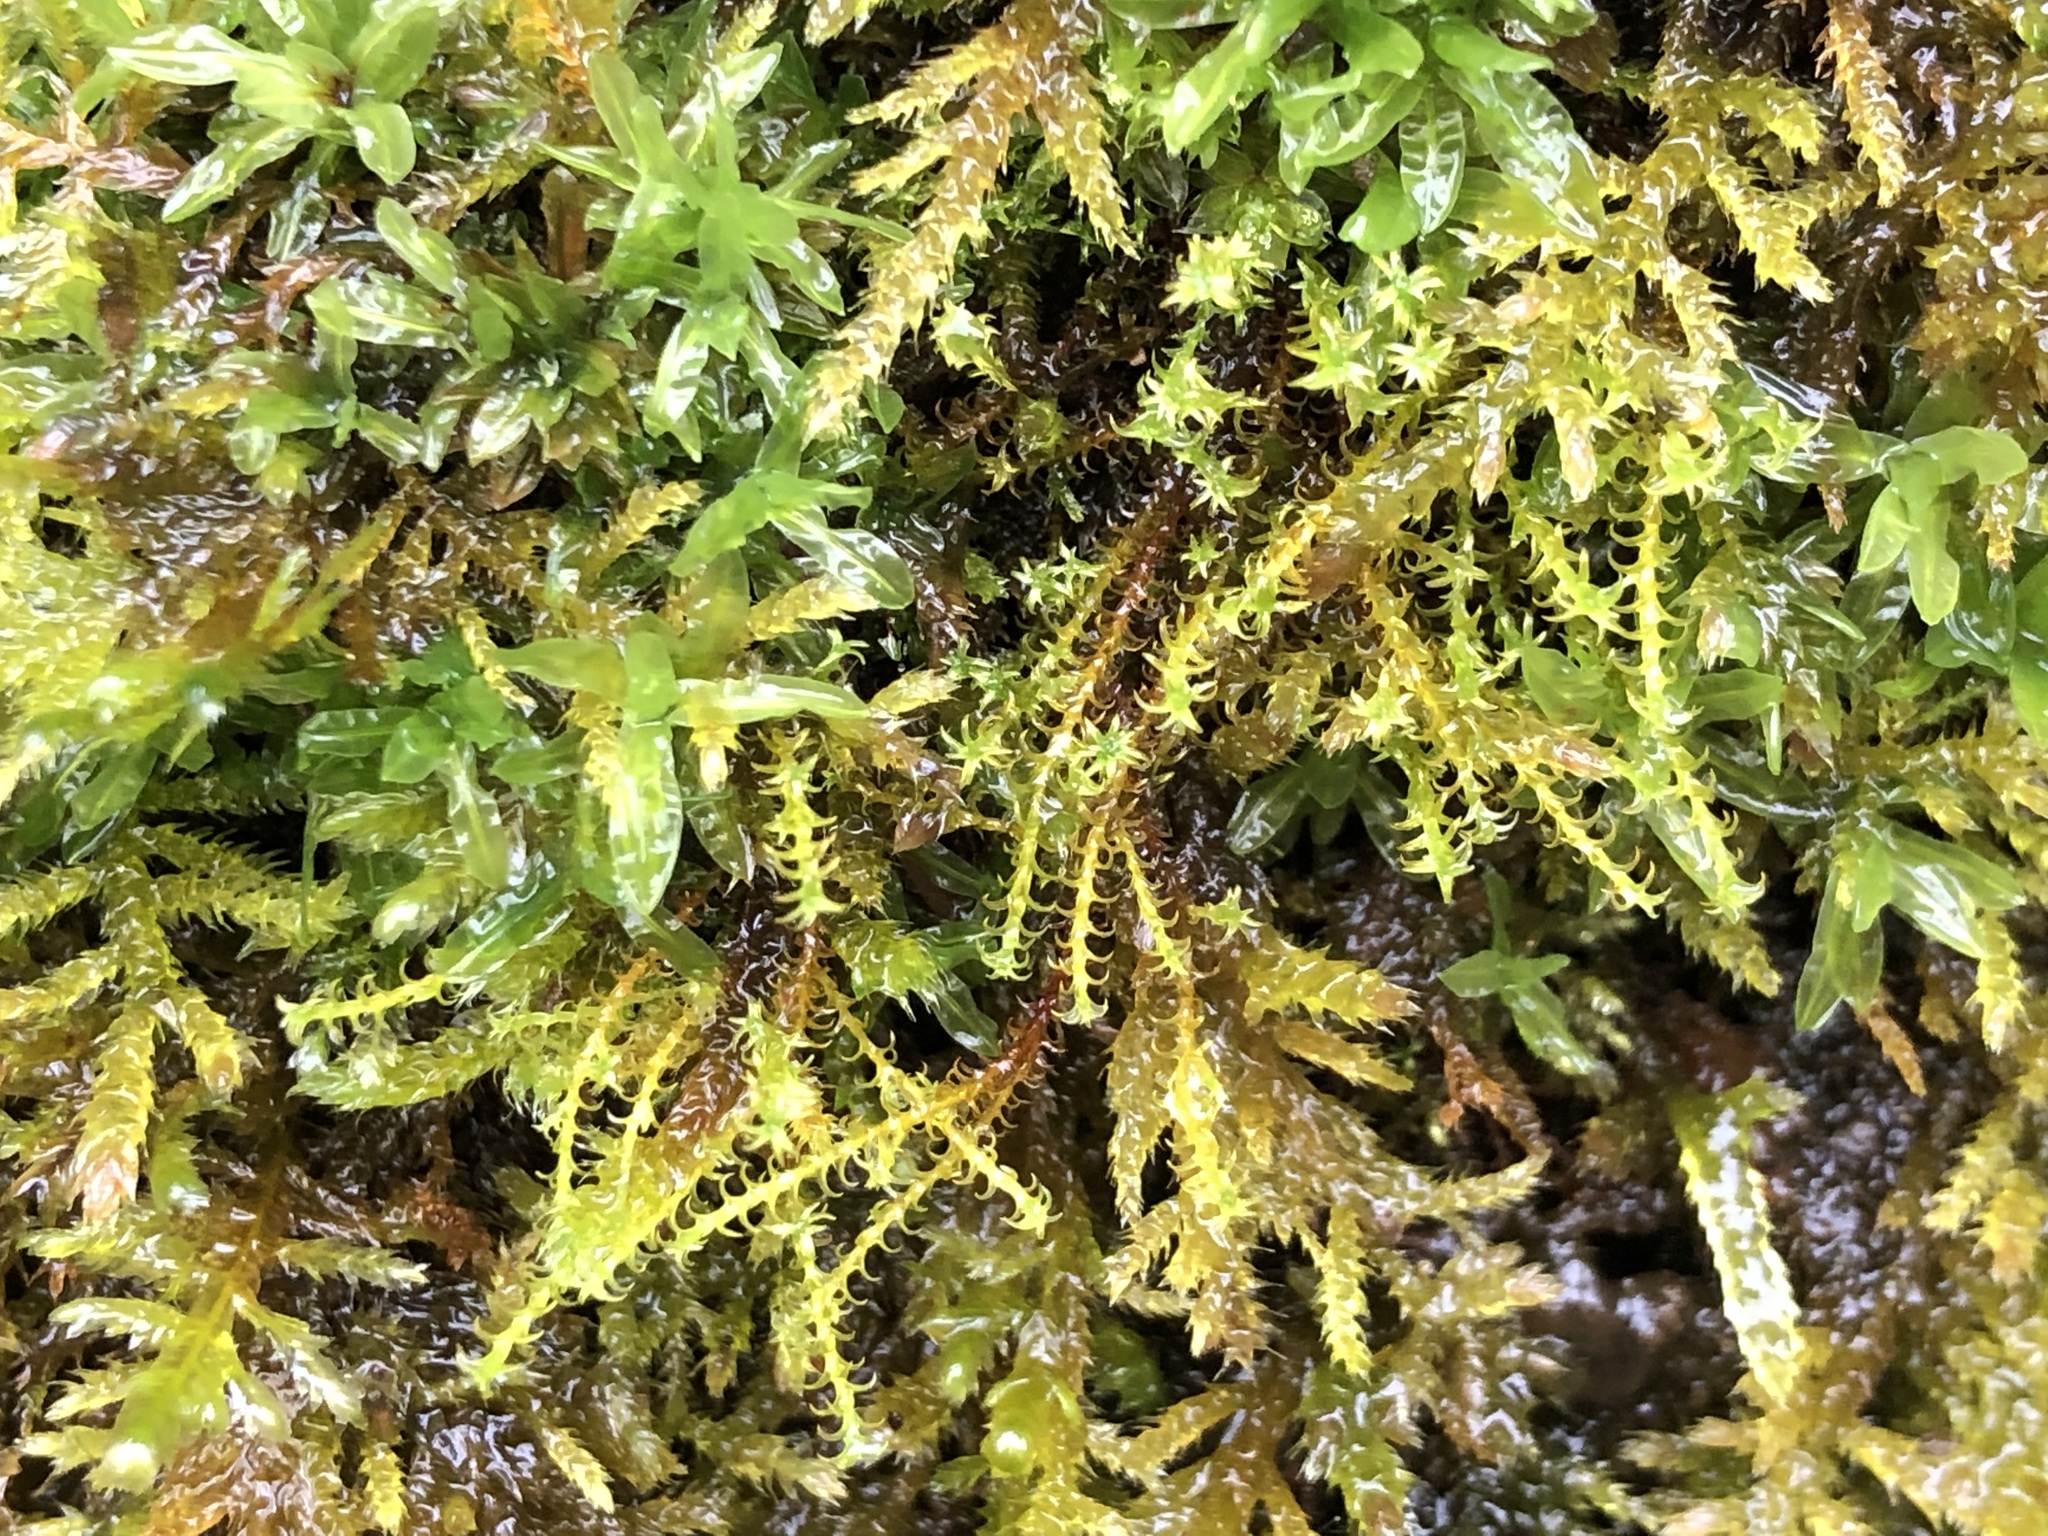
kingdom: Plantae
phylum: Bryophyta
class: Bryopsida
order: Pottiales
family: Pottiaceae
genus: Geheebia
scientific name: Geheebia ferruginea
